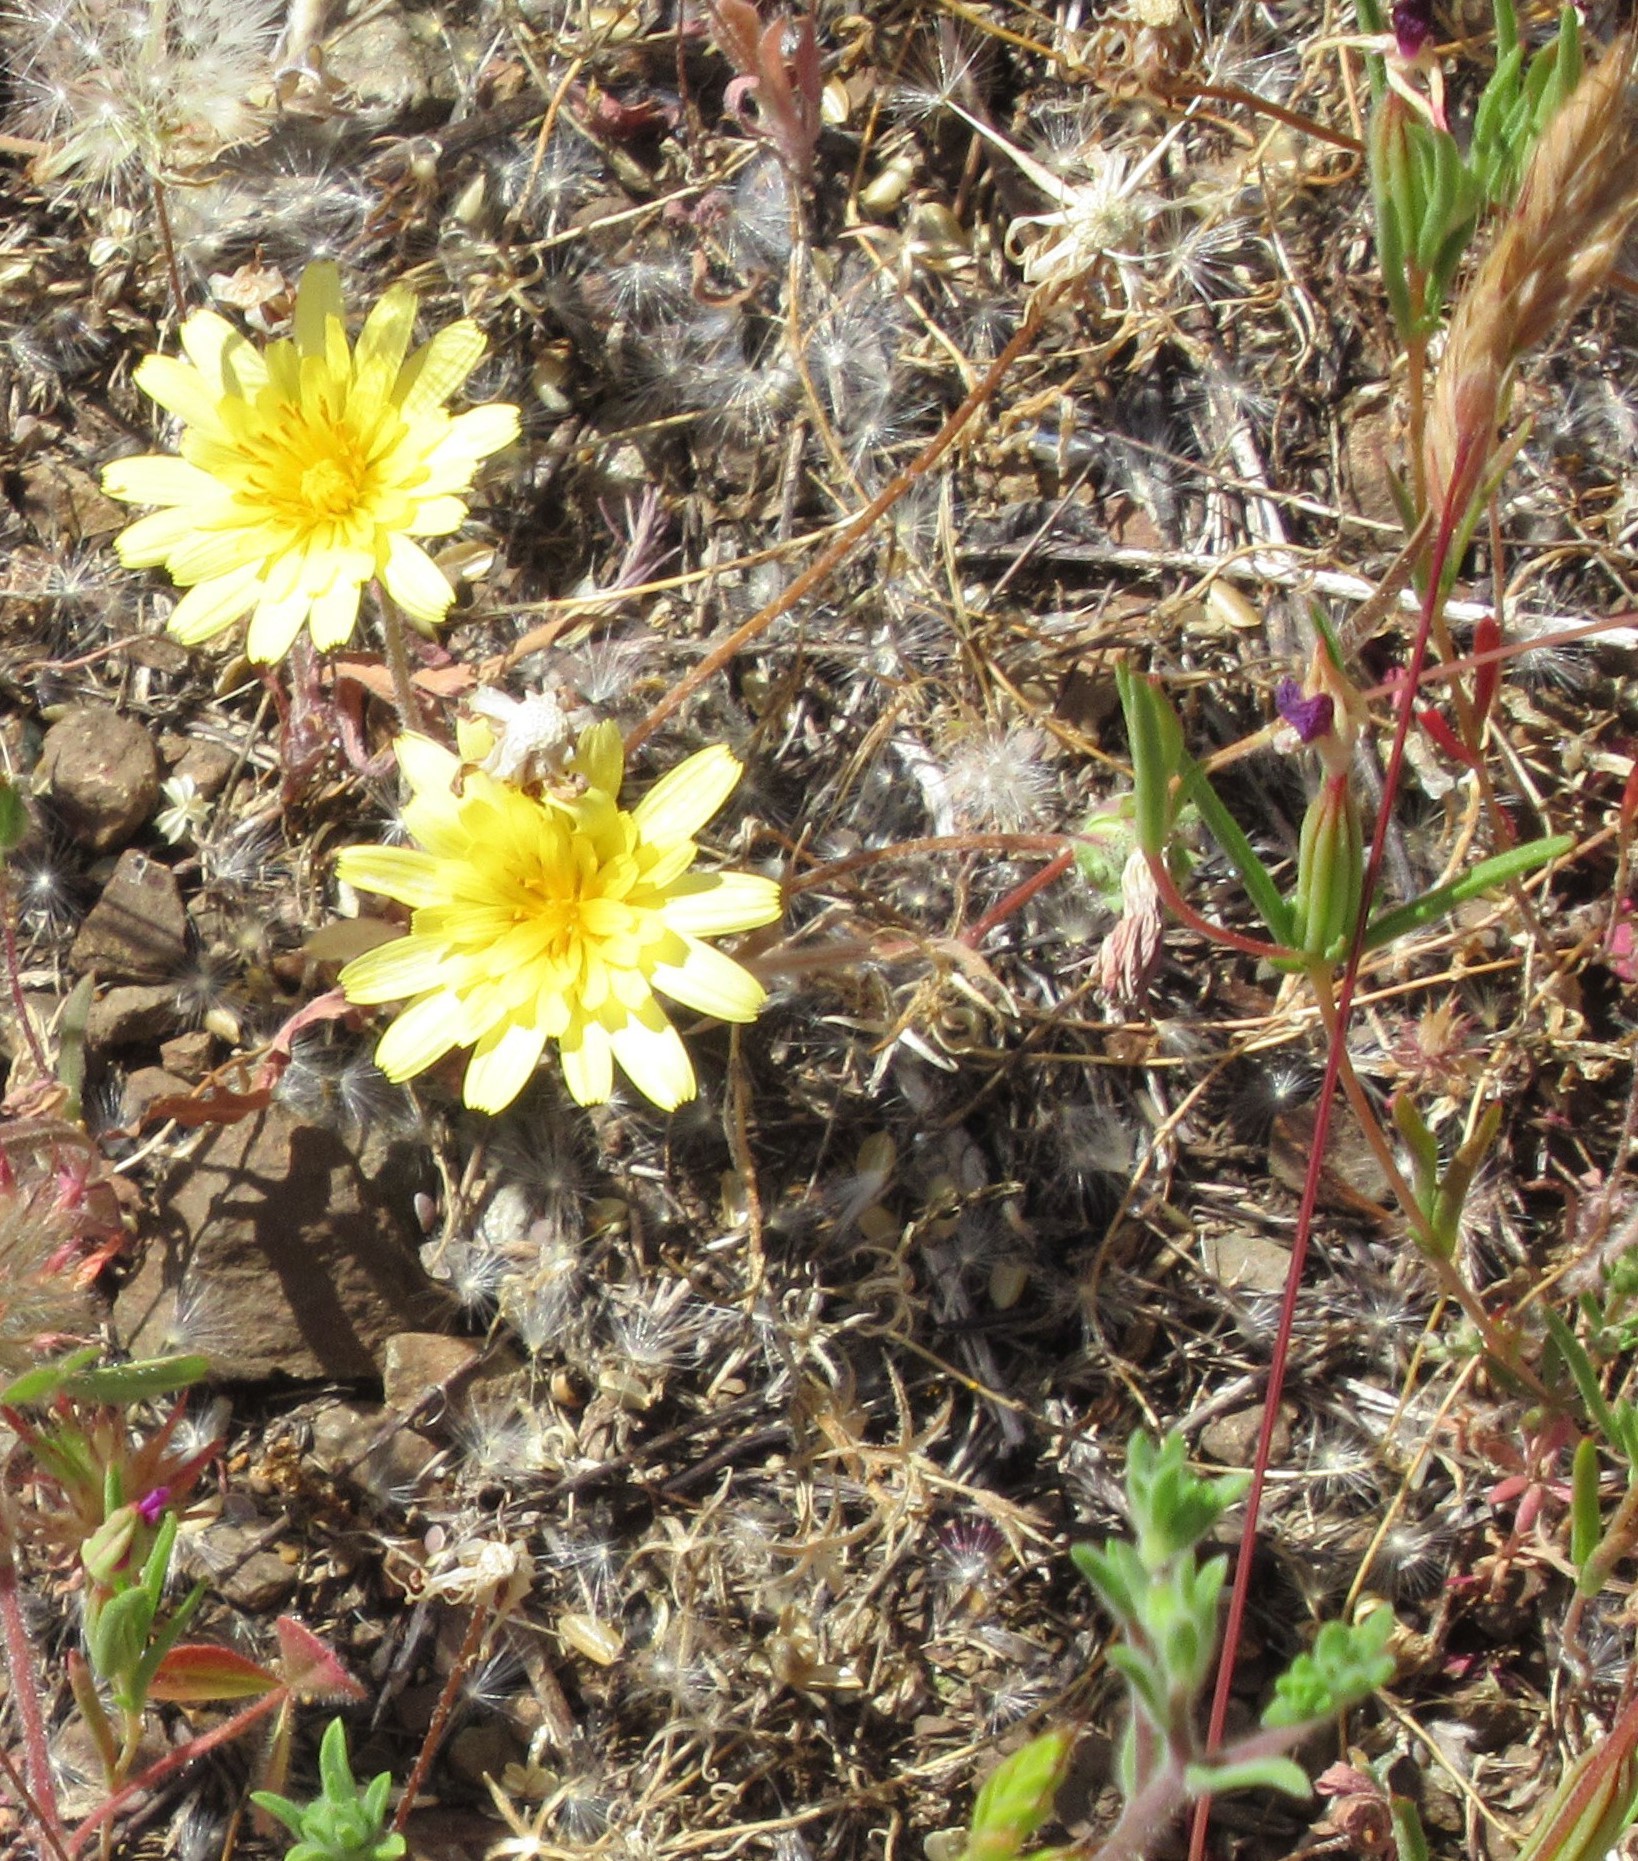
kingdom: Plantae
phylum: Tracheophyta
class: Magnoliopsida
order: Asterales
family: Asteraceae
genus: Agoseris
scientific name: Agoseris heterophylla
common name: Annual agoseris
